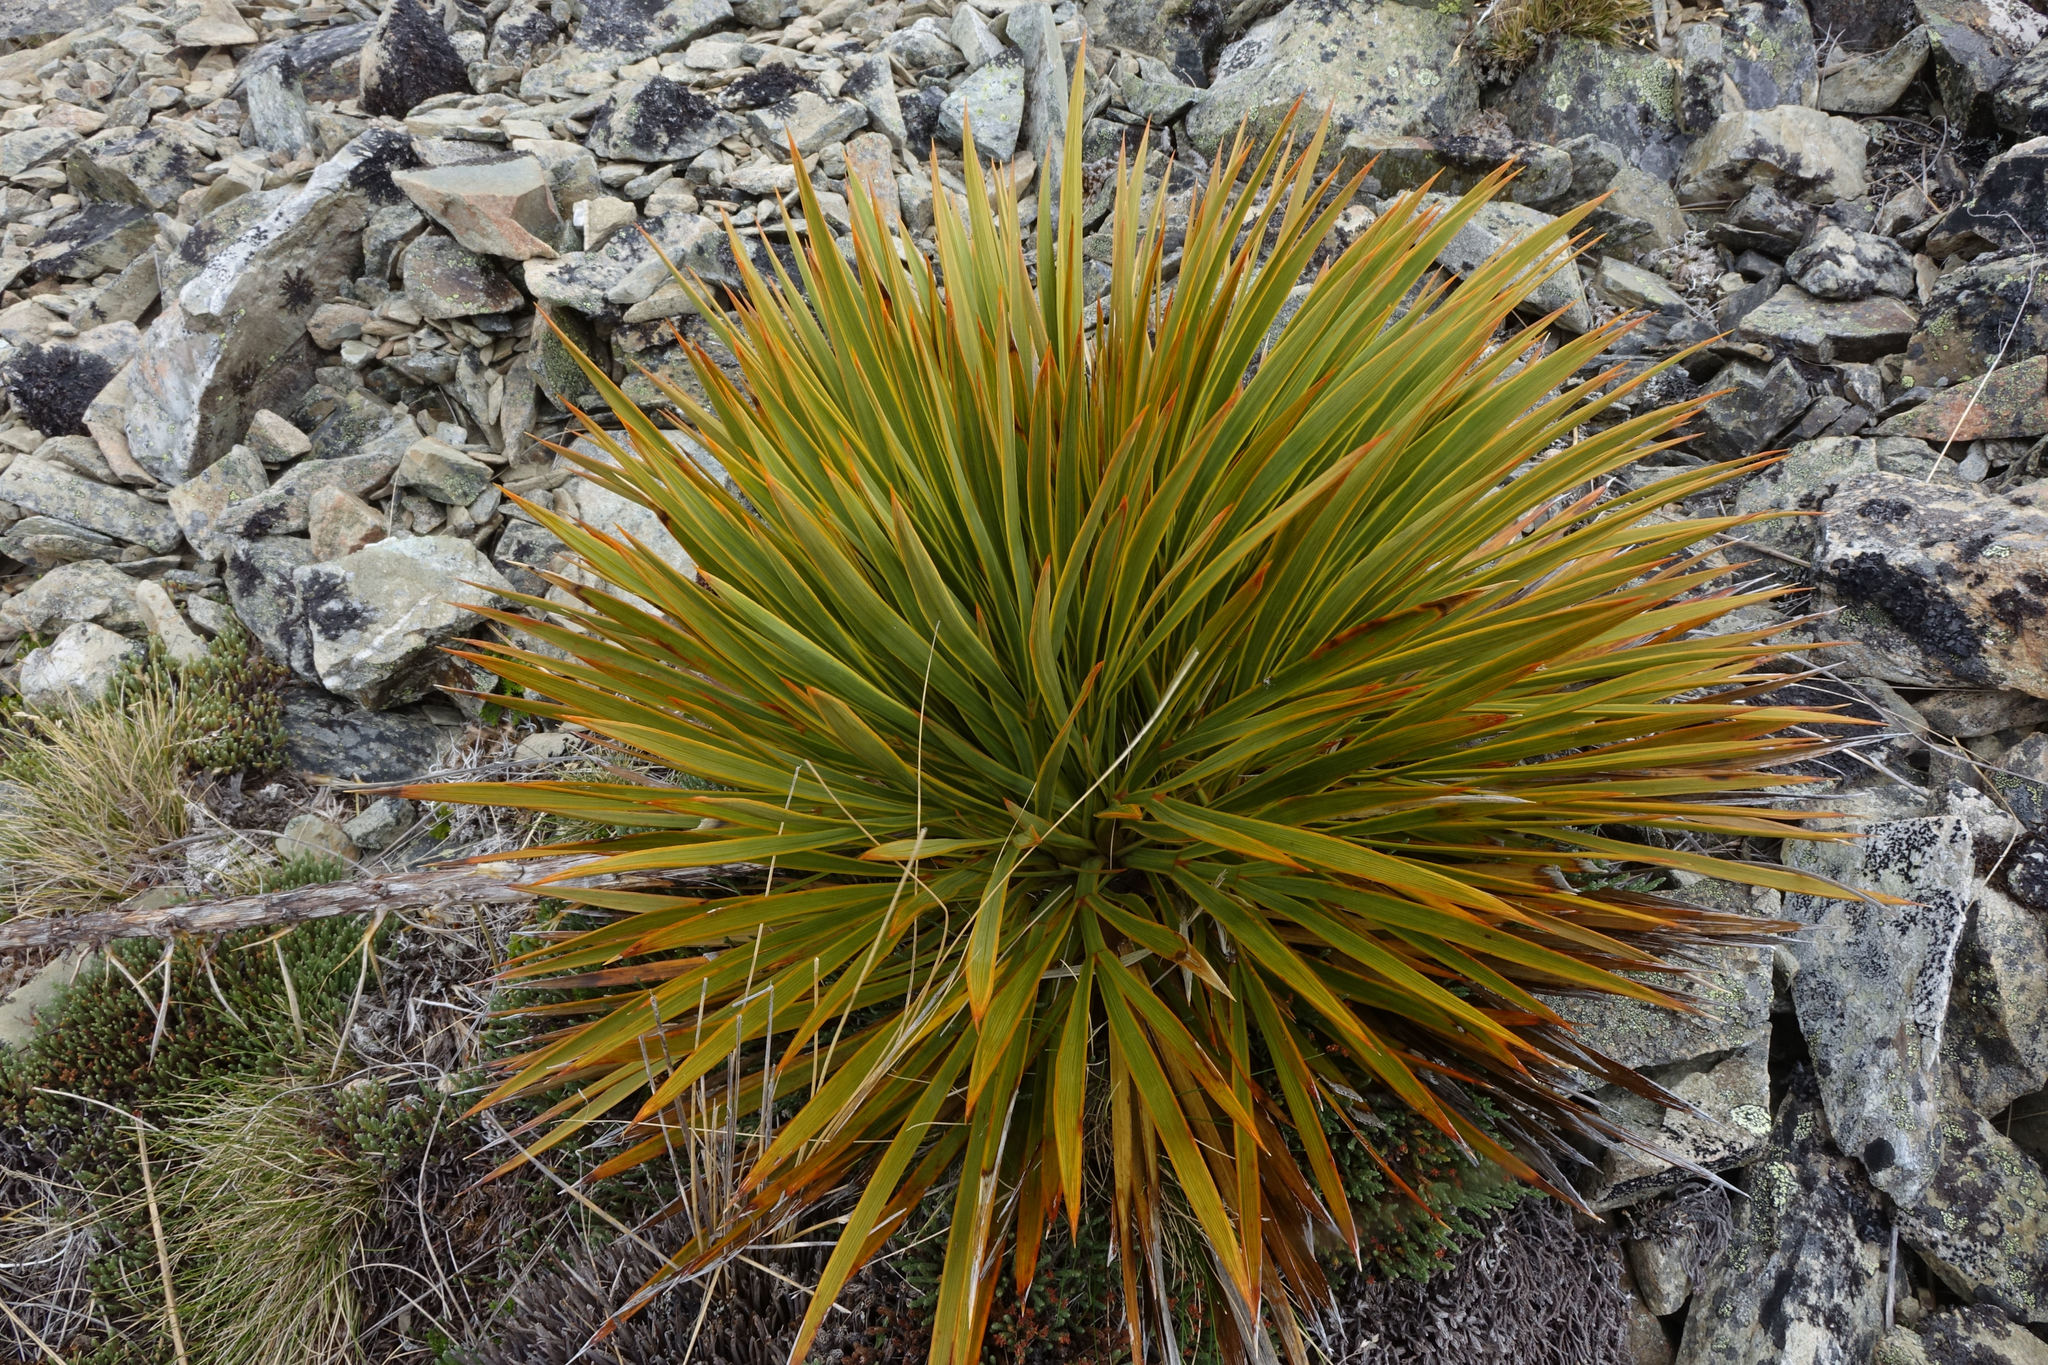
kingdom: Plantae
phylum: Tracheophyta
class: Magnoliopsida
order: Apiales
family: Apiaceae
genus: Aciphylla
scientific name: Aciphylla aurea
